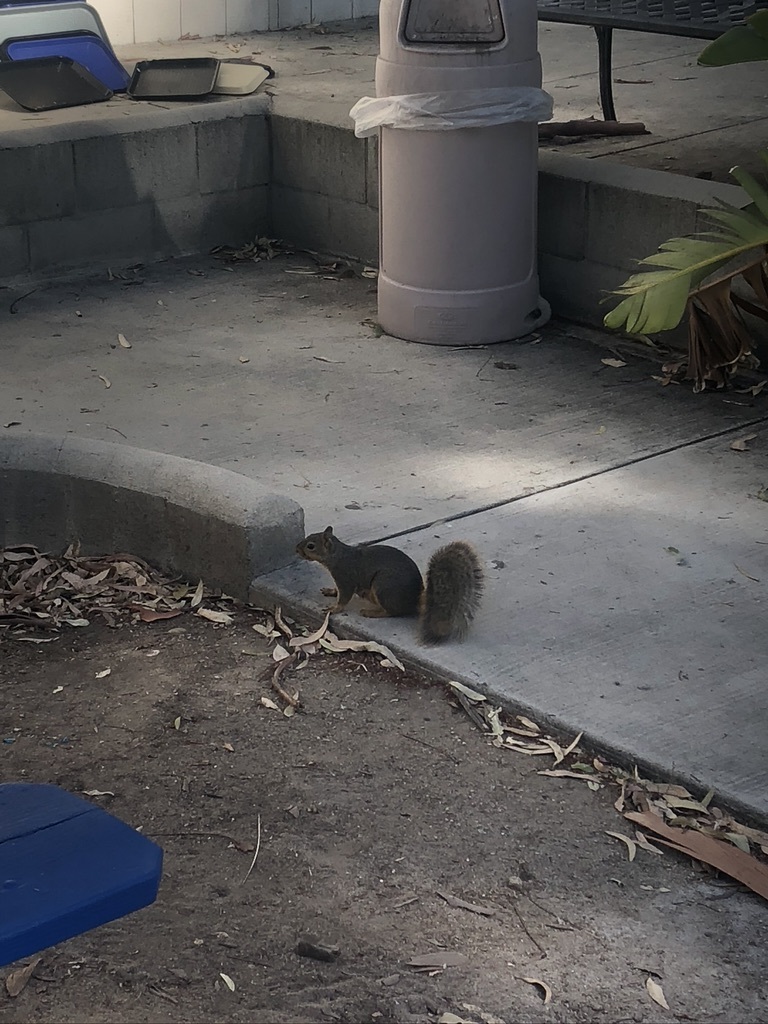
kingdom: Animalia
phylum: Chordata
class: Mammalia
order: Rodentia
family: Sciuridae
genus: Sciurus
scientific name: Sciurus niger
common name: Fox squirrel
